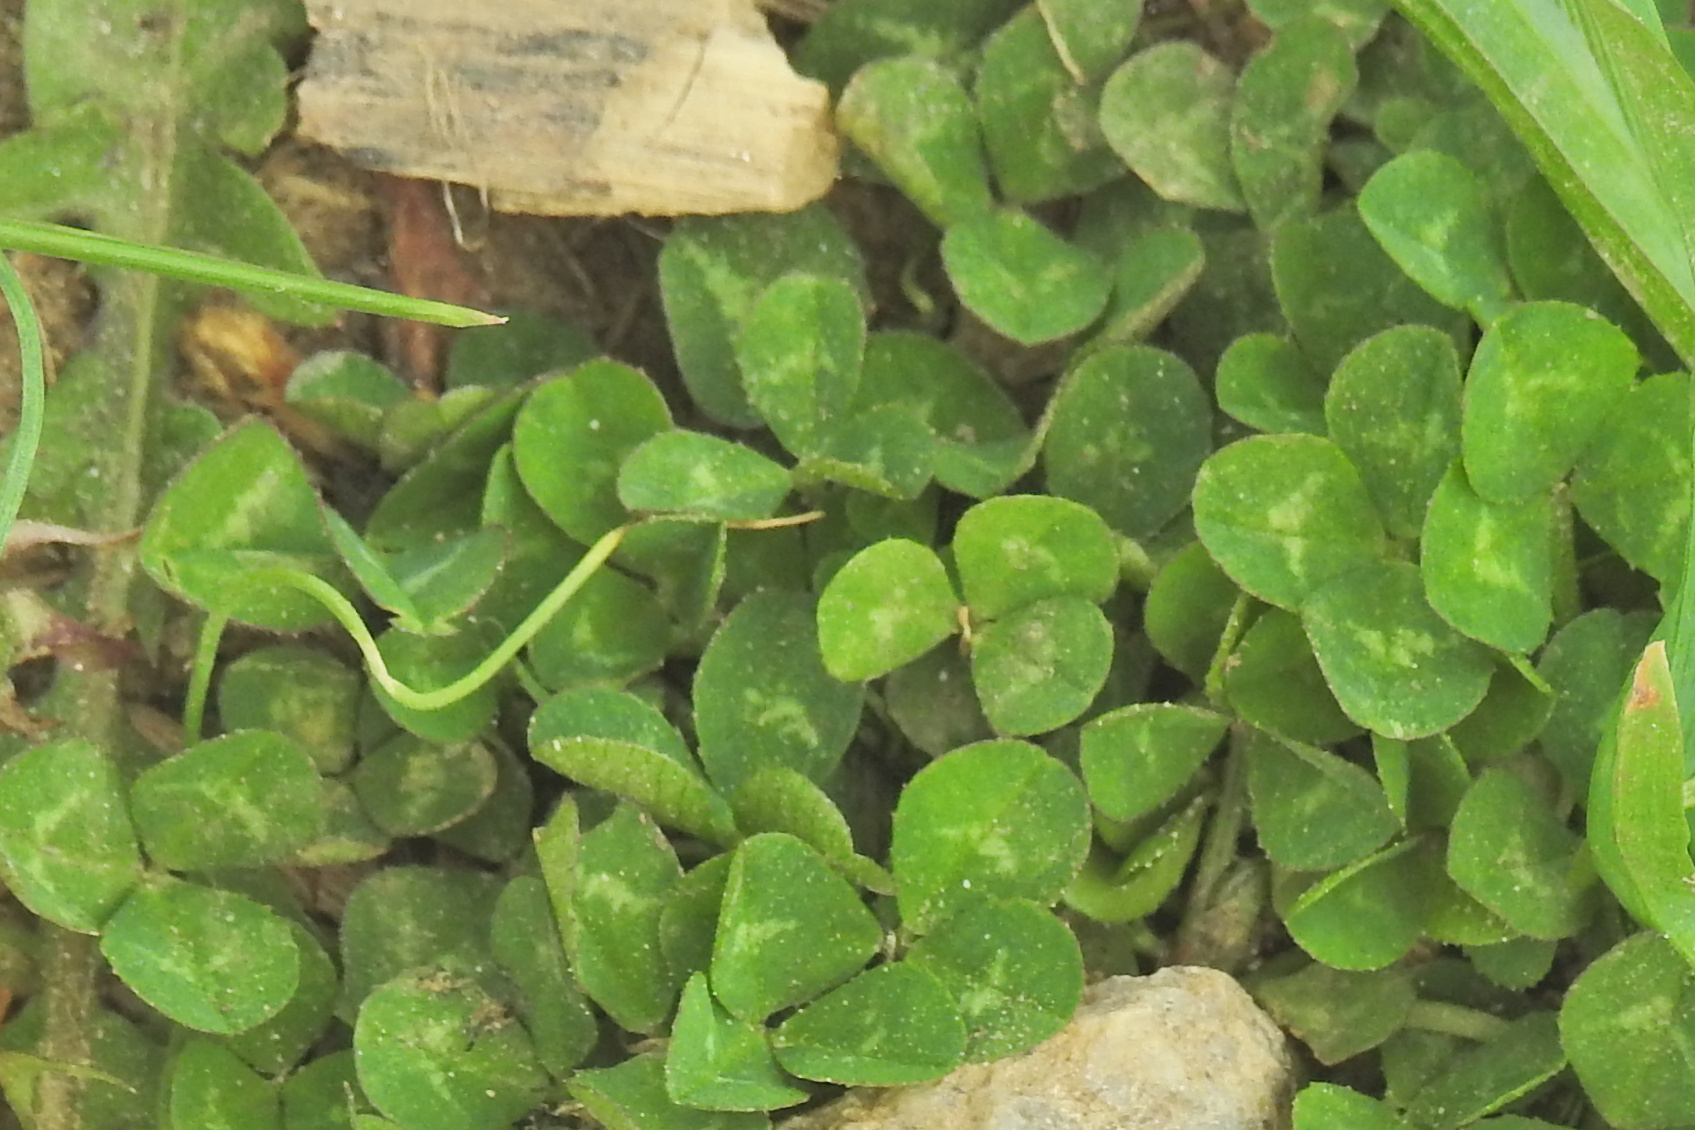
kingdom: Plantae
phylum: Tracheophyta
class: Magnoliopsida
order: Fabales
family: Fabaceae
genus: Trifolium
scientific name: Trifolium repens
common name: White clover
